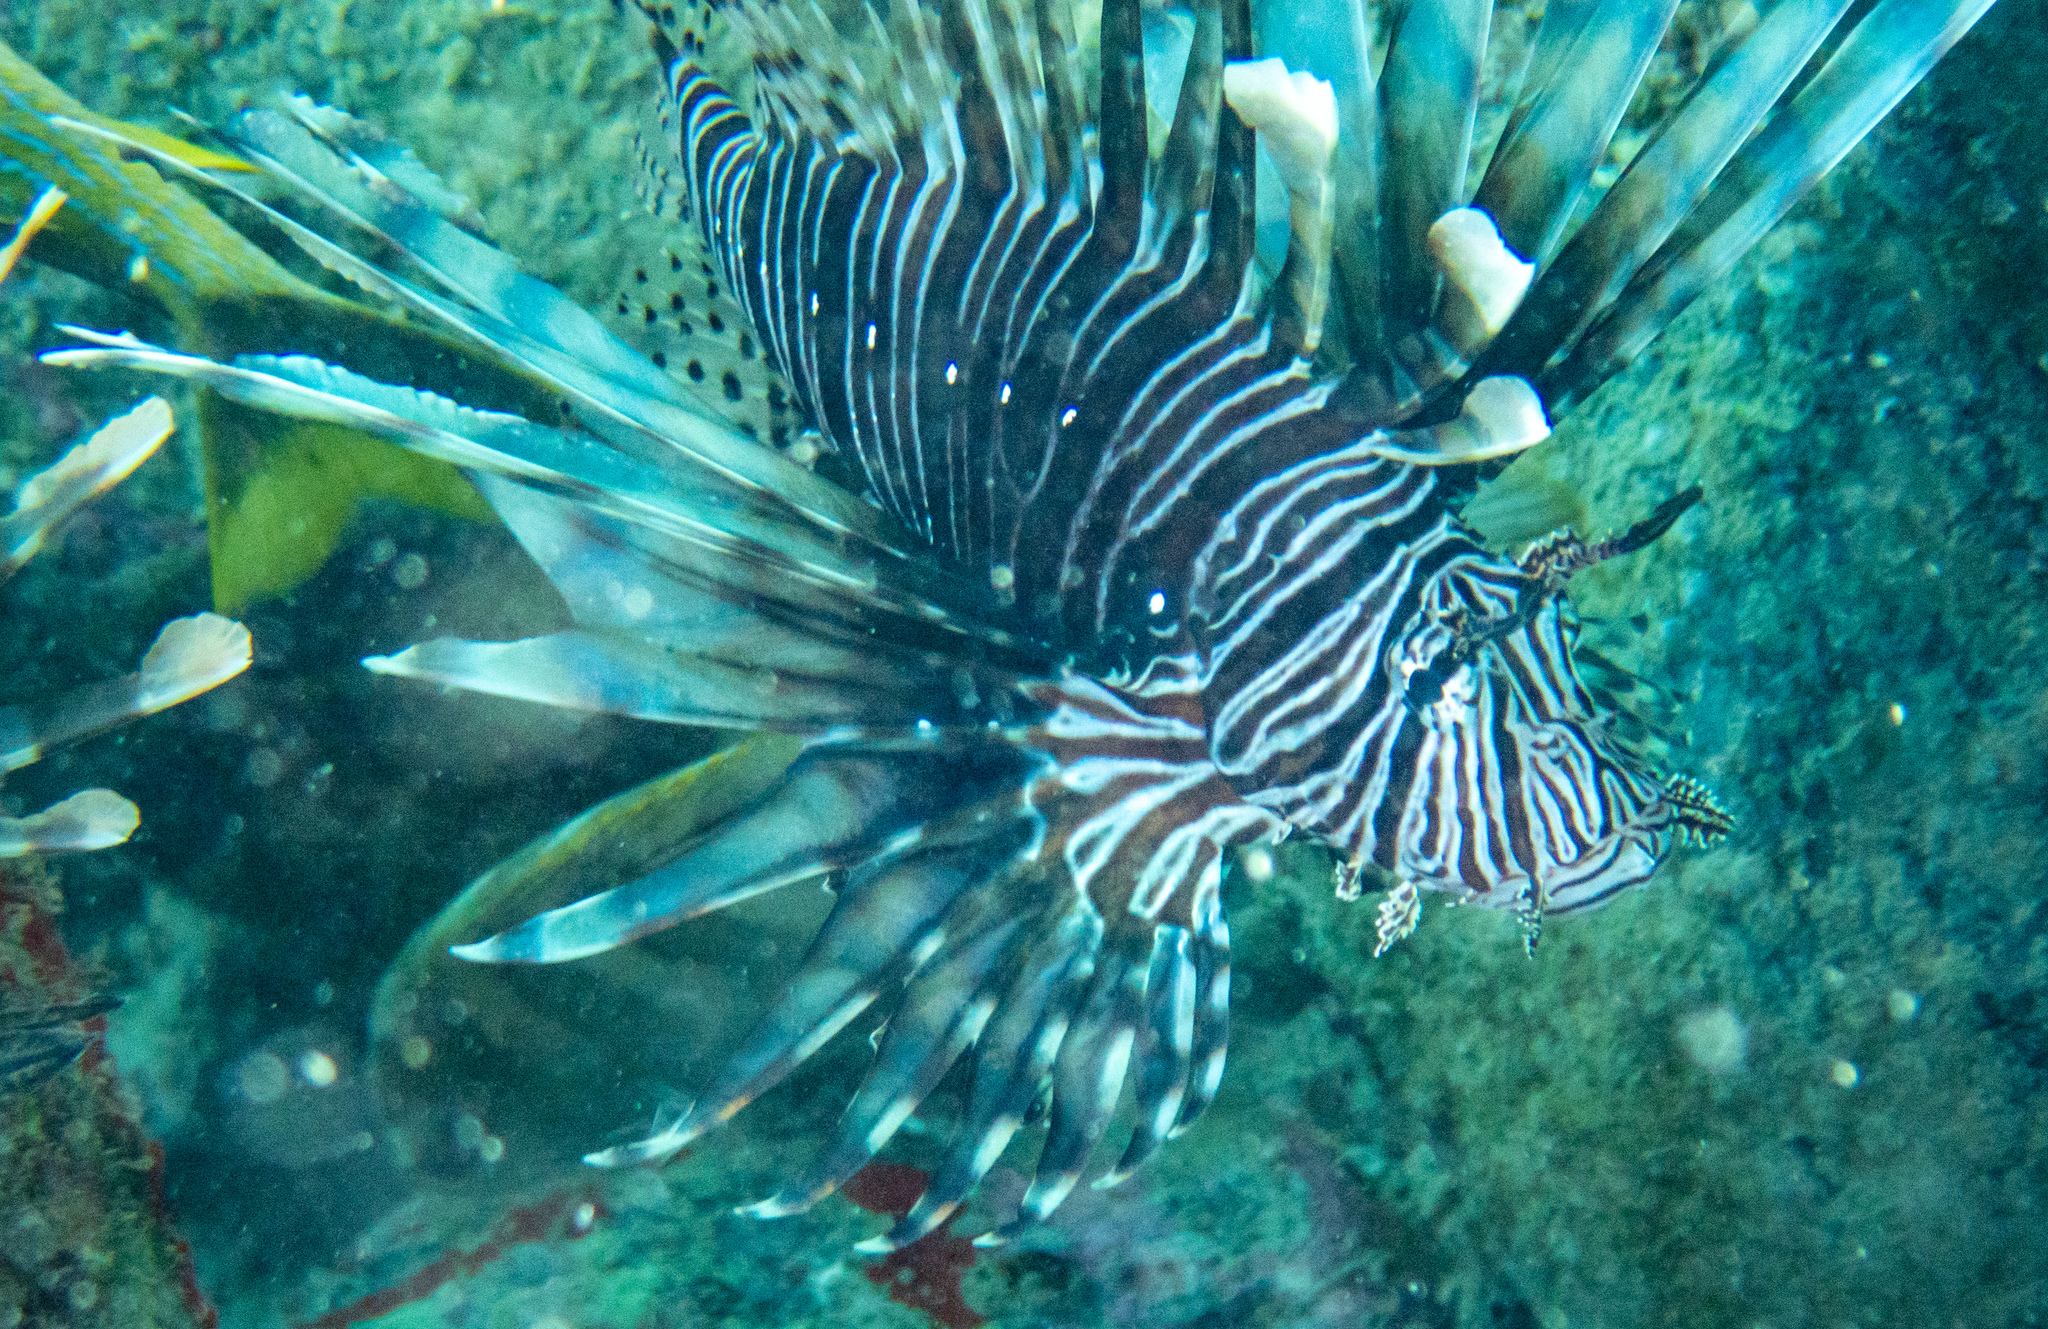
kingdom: Animalia
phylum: Chordata
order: Scorpaeniformes
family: Scorpaenidae
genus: Pterois
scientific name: Pterois volitans
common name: Lionfish
